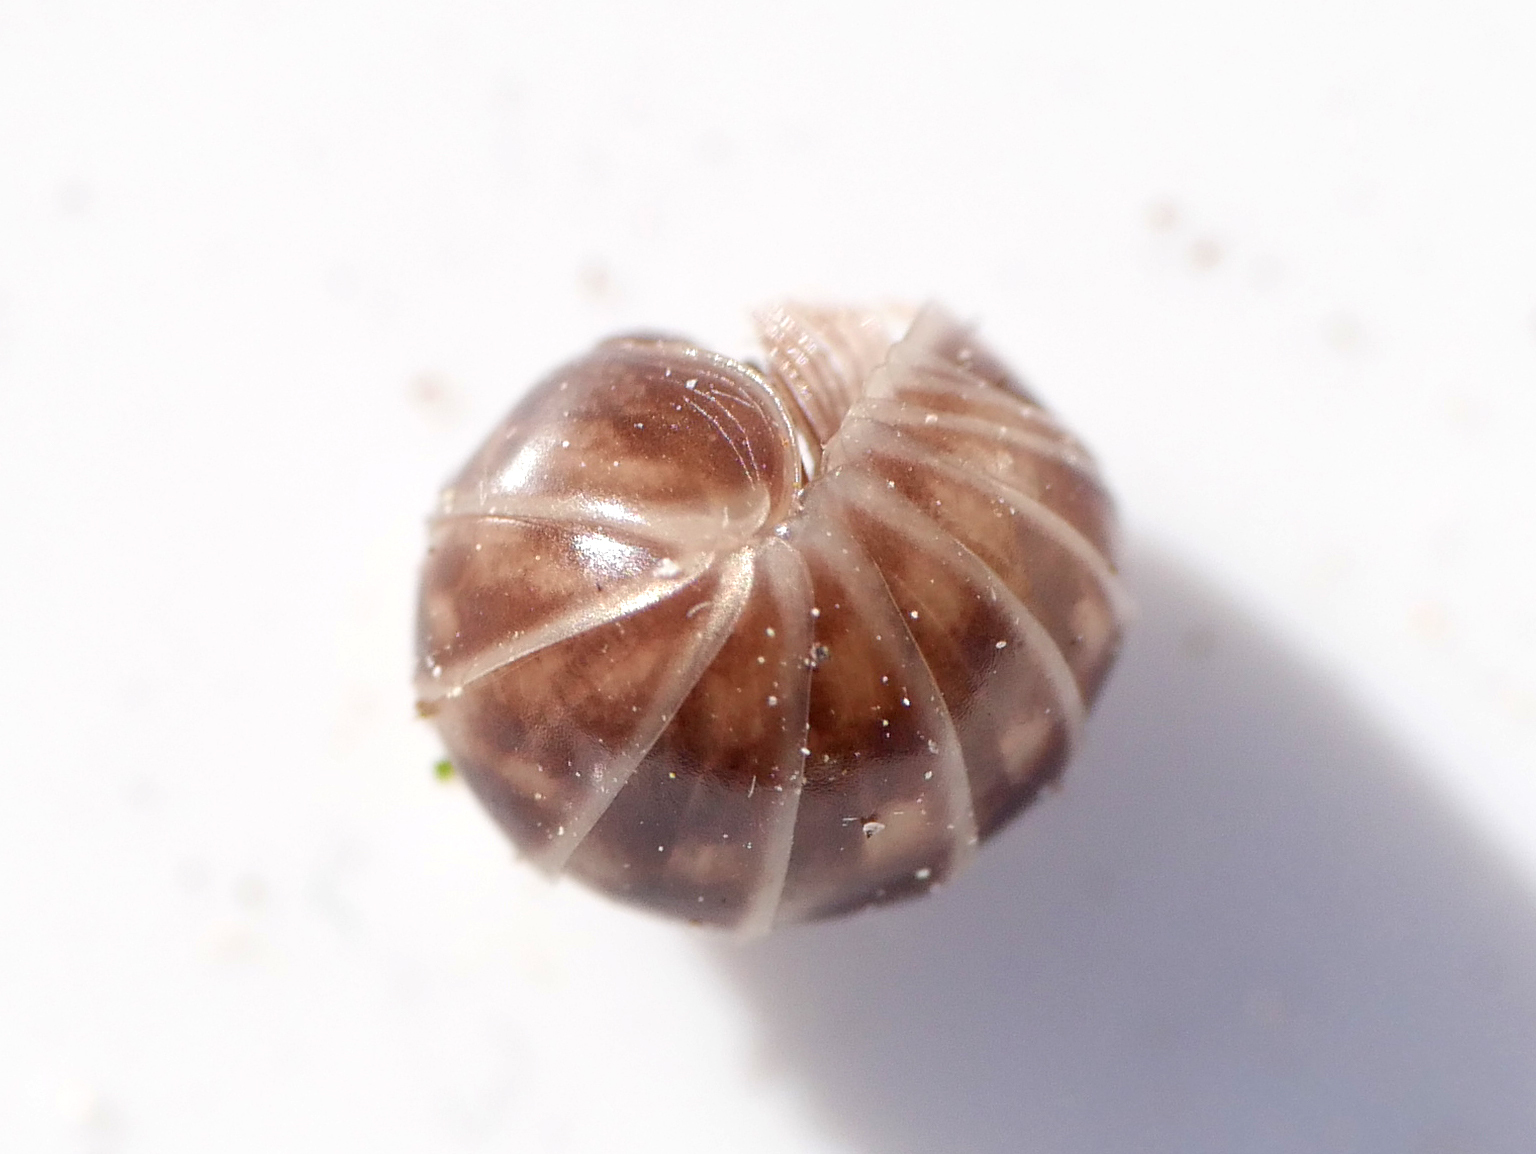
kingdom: Animalia
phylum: Arthropoda
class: Diplopoda
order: Glomerida
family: Glomeridae
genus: Glomeris
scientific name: Glomeris marginata
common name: Bordered pill millipede
